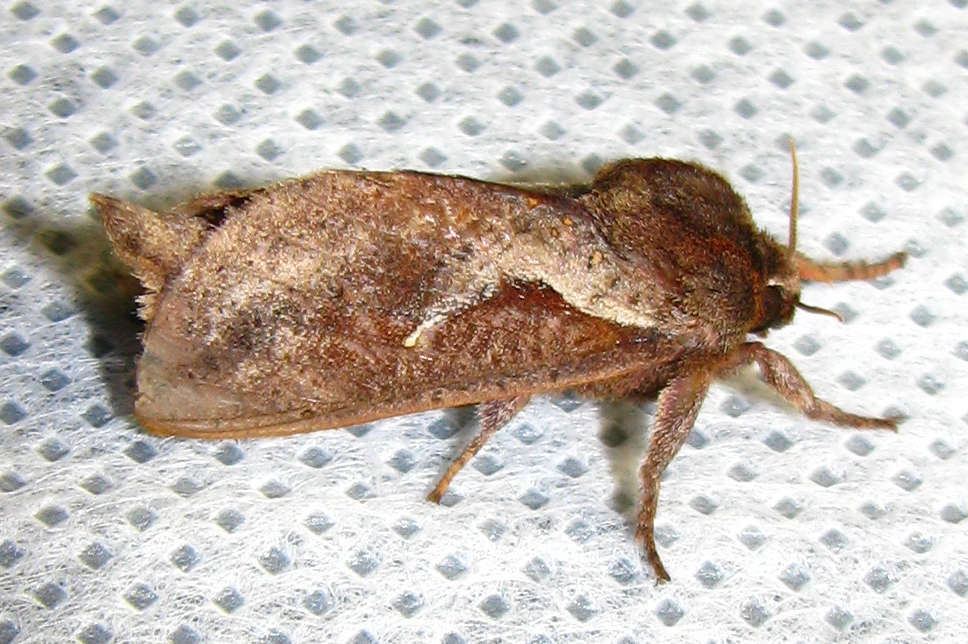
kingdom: Animalia
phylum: Arthropoda
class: Insecta
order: Lepidoptera
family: Hepialidae
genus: Elhamma
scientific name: Elhamma australasiae
